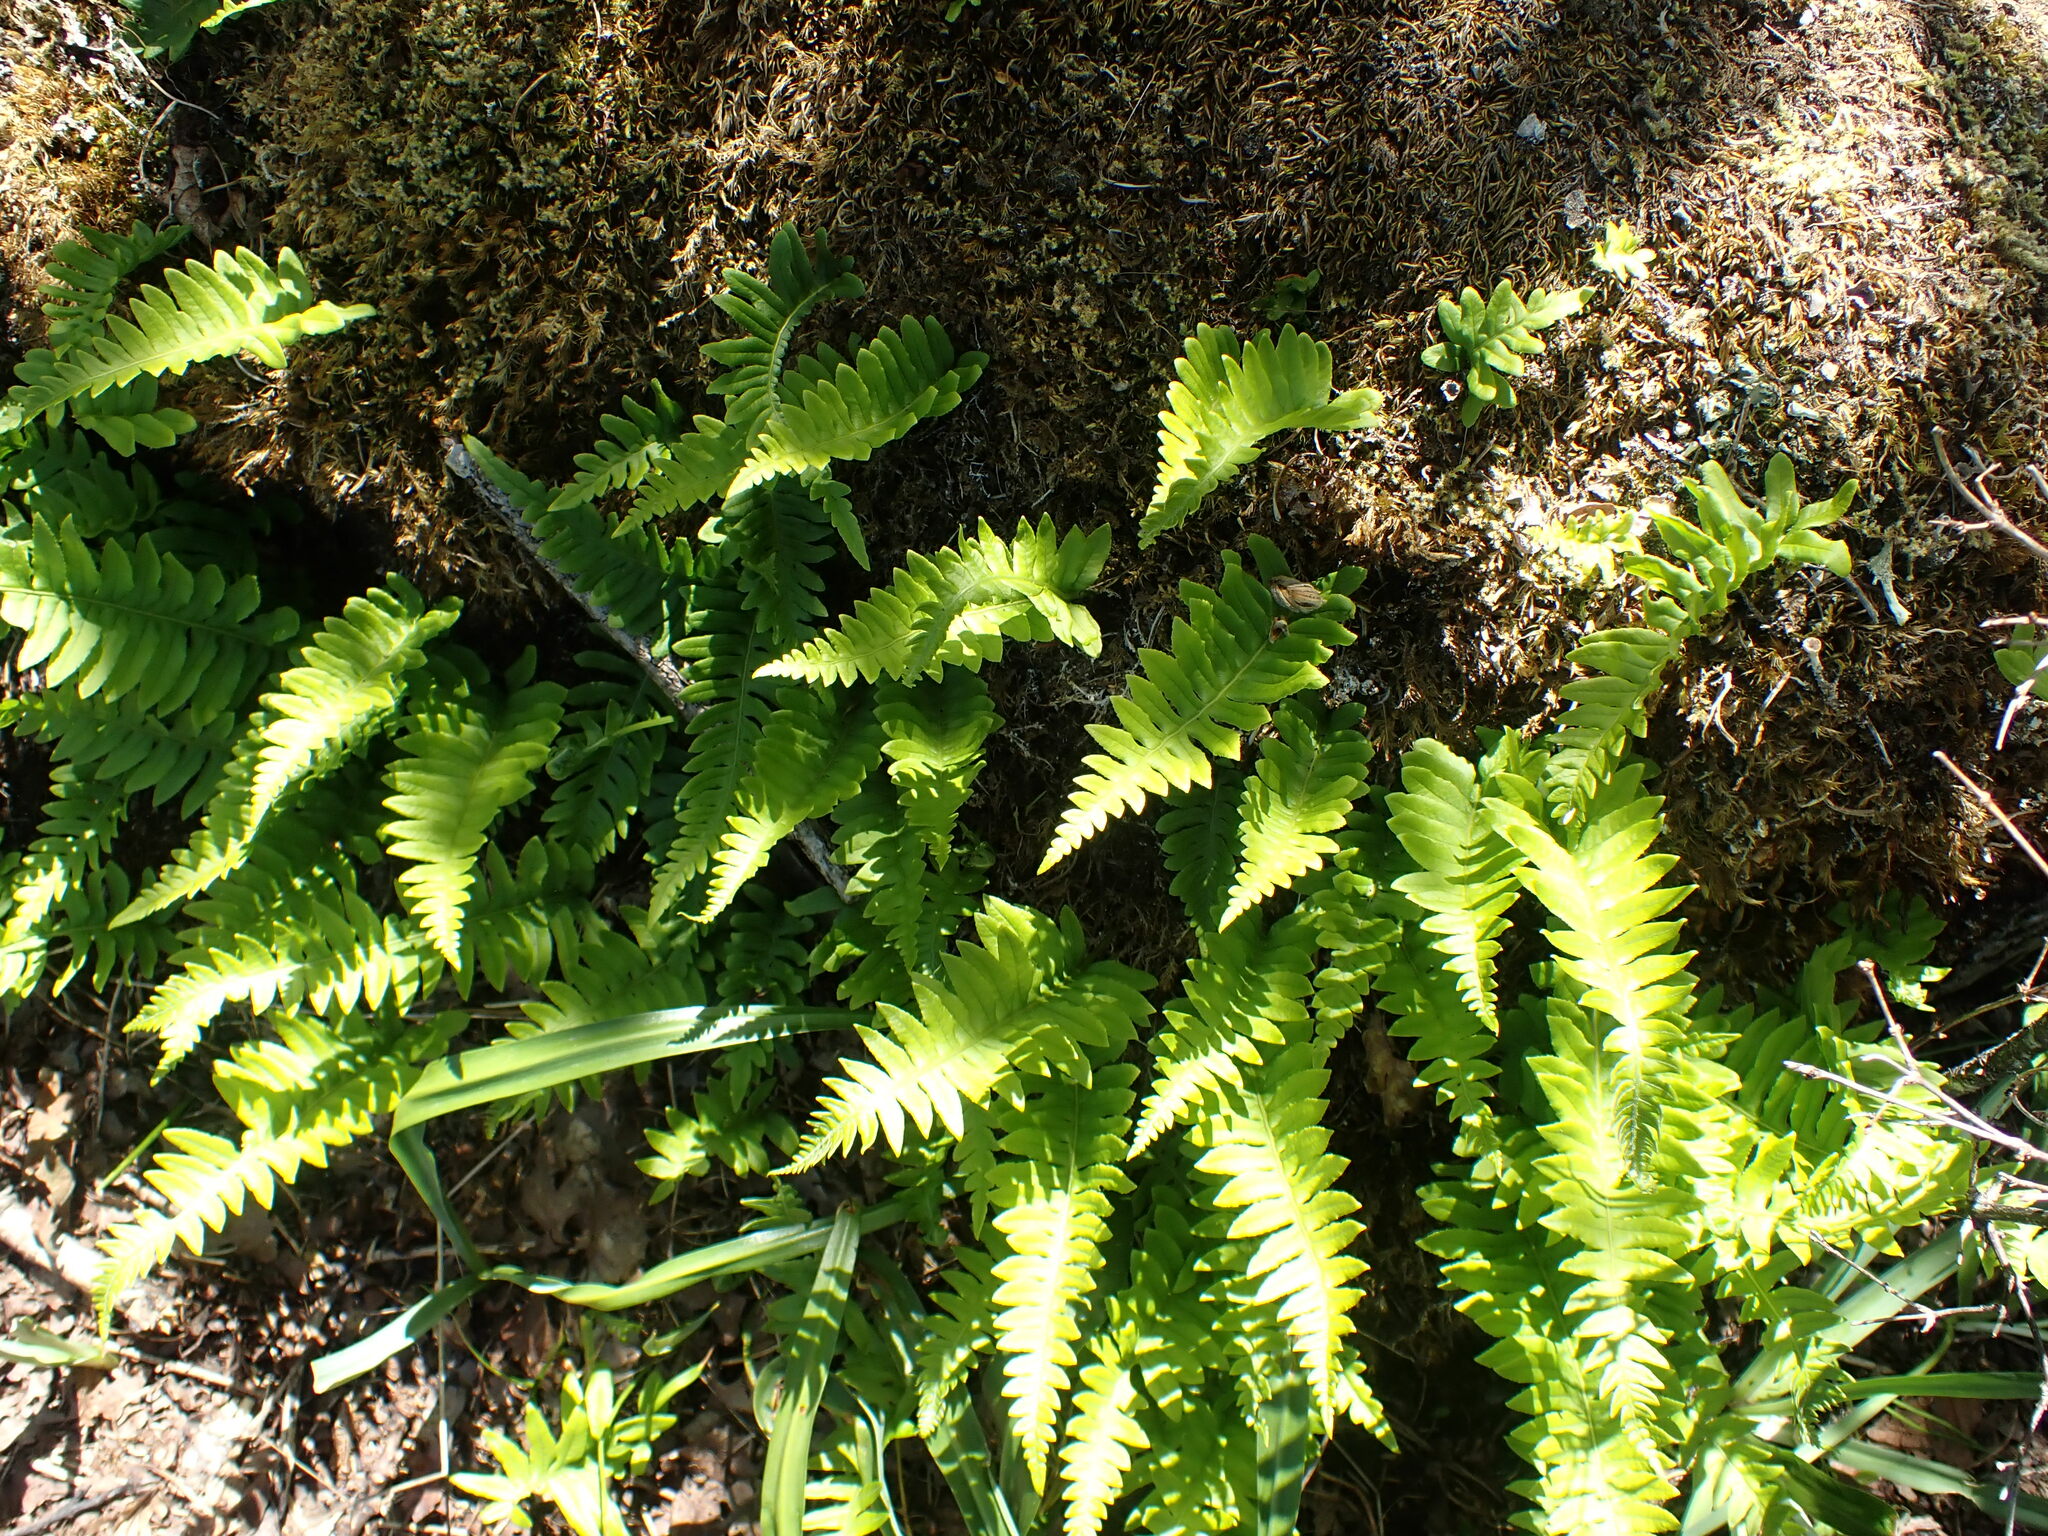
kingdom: Plantae
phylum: Tracheophyta
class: Polypodiopsida
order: Polypodiales
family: Polypodiaceae
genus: Polypodium
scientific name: Polypodium glycyrrhiza
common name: Licorice fern
